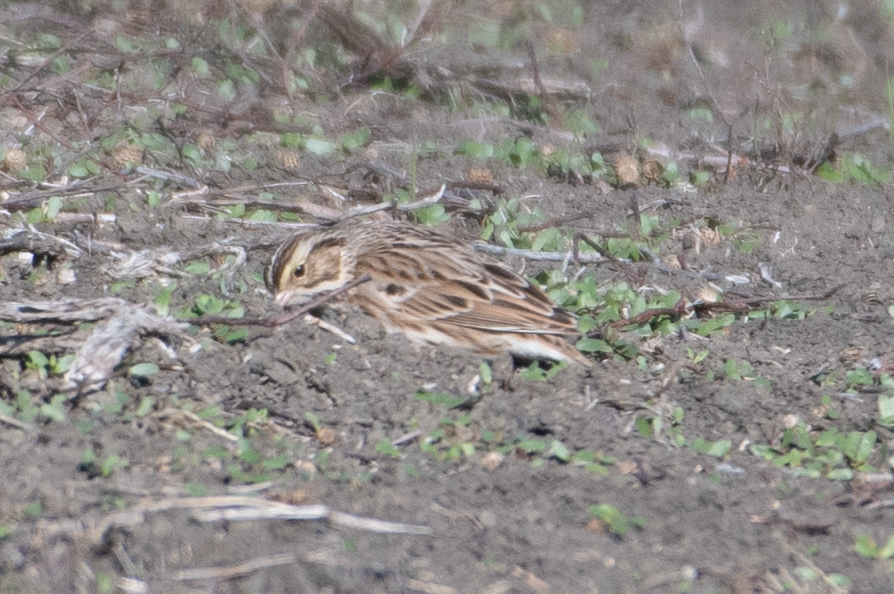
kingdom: Animalia
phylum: Chordata
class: Aves
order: Passeriformes
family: Passerellidae
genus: Passerculus
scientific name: Passerculus sandwichensis
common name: Savannah sparrow
